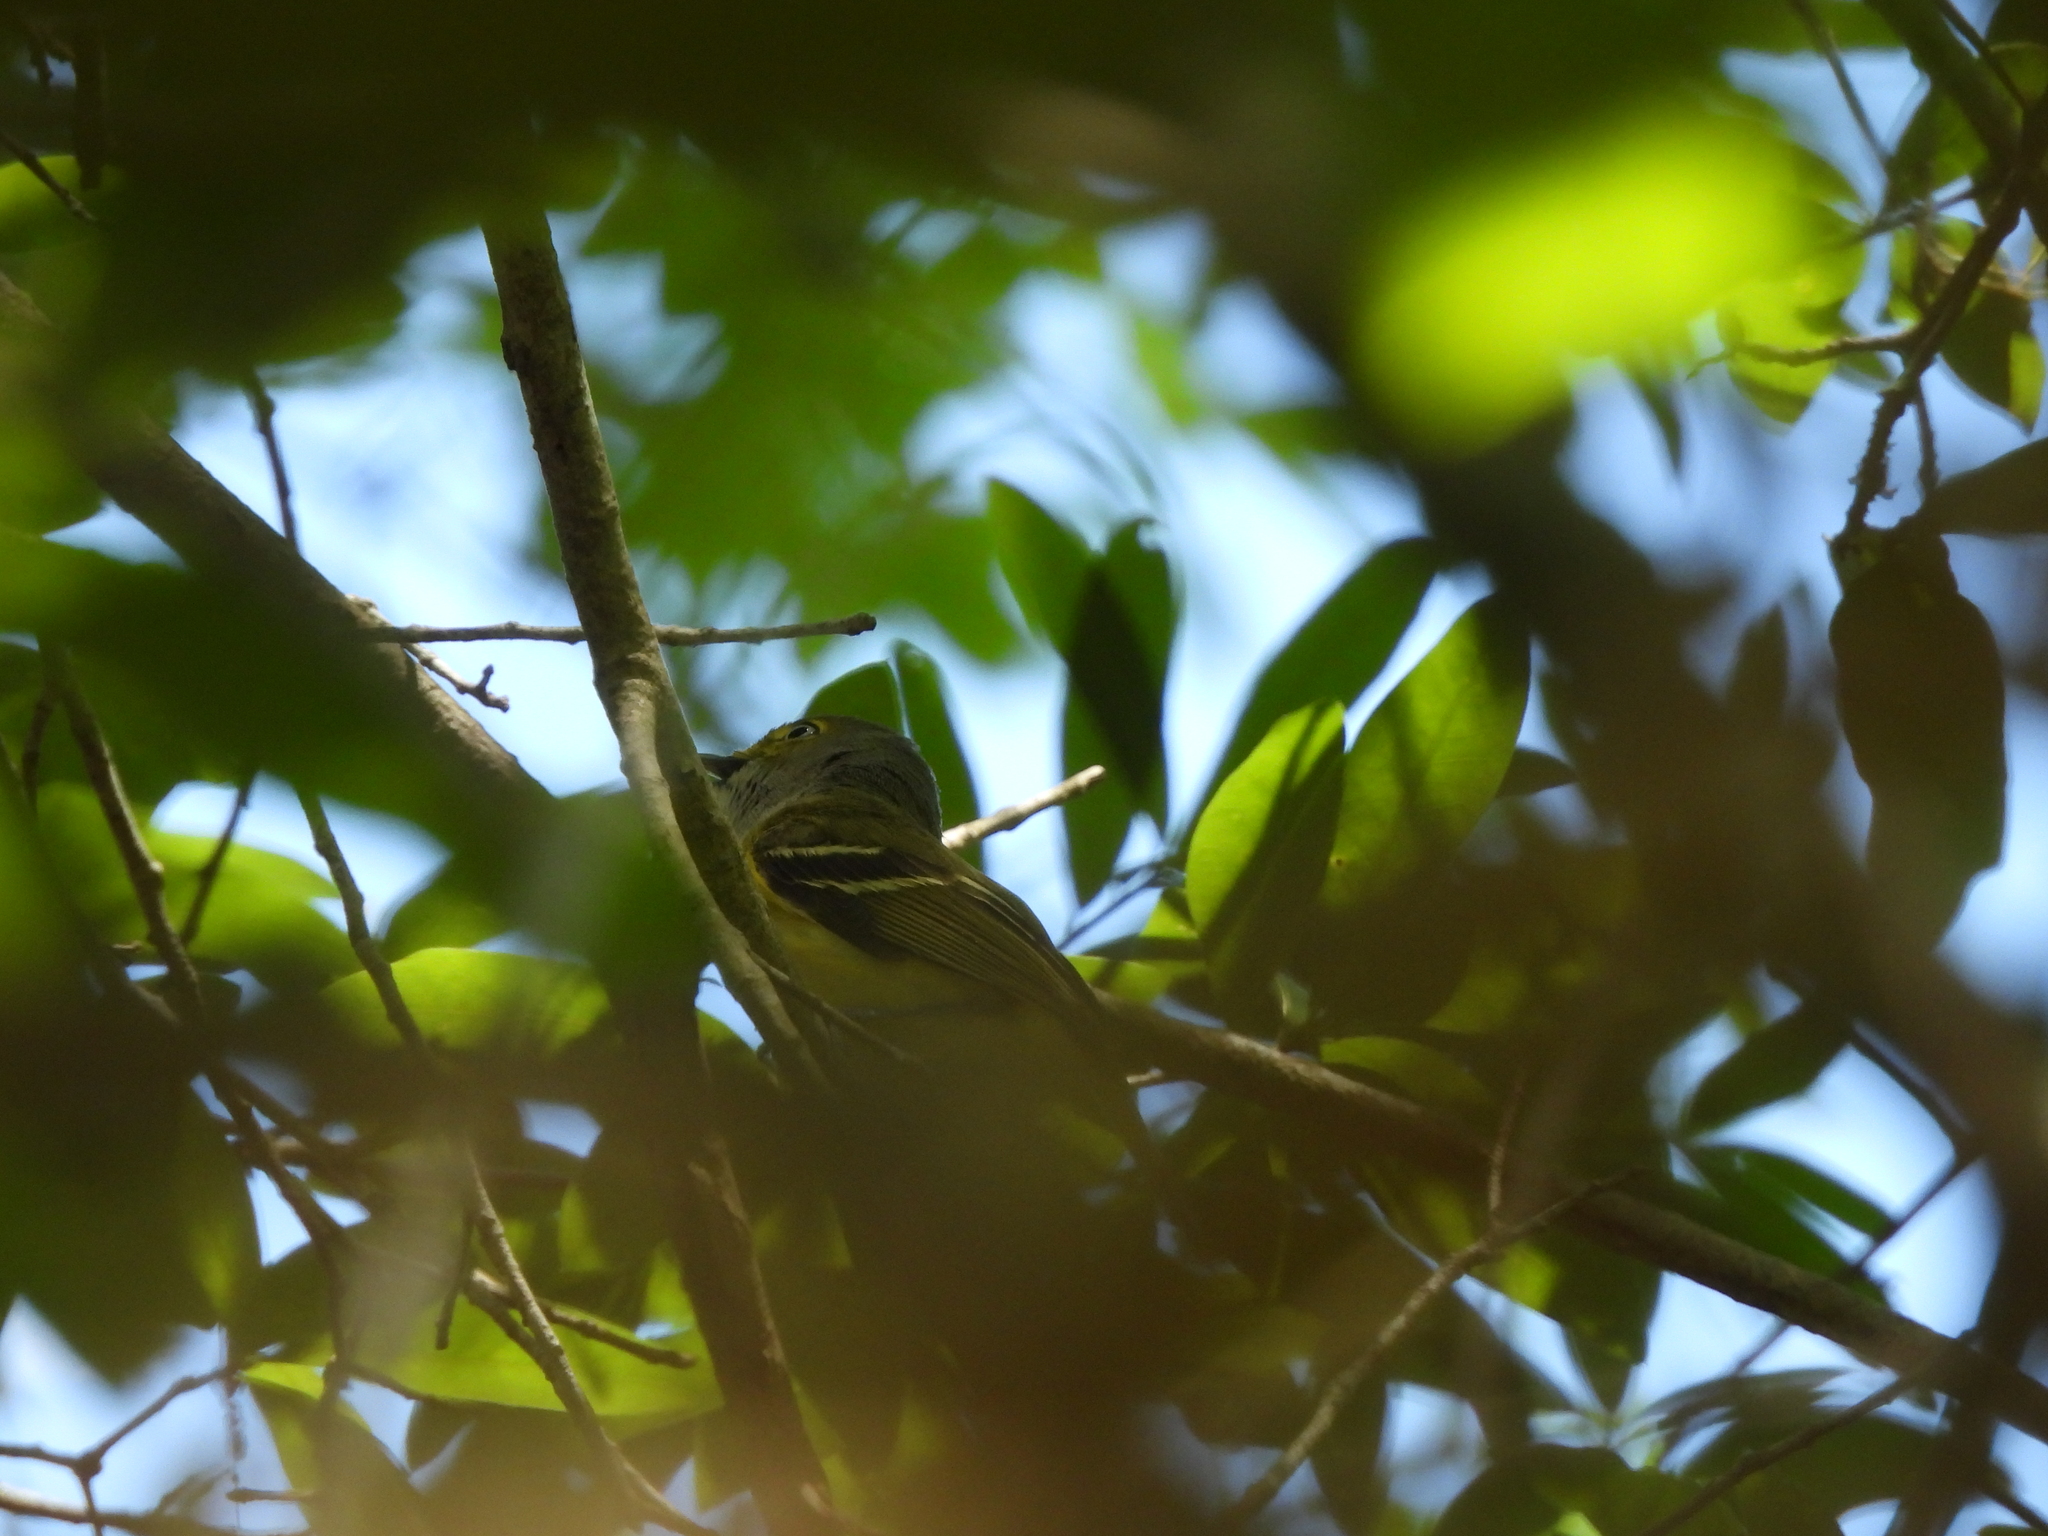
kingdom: Animalia
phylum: Chordata
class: Aves
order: Passeriformes
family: Vireonidae
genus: Vireo
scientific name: Vireo griseus
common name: White-eyed vireo
